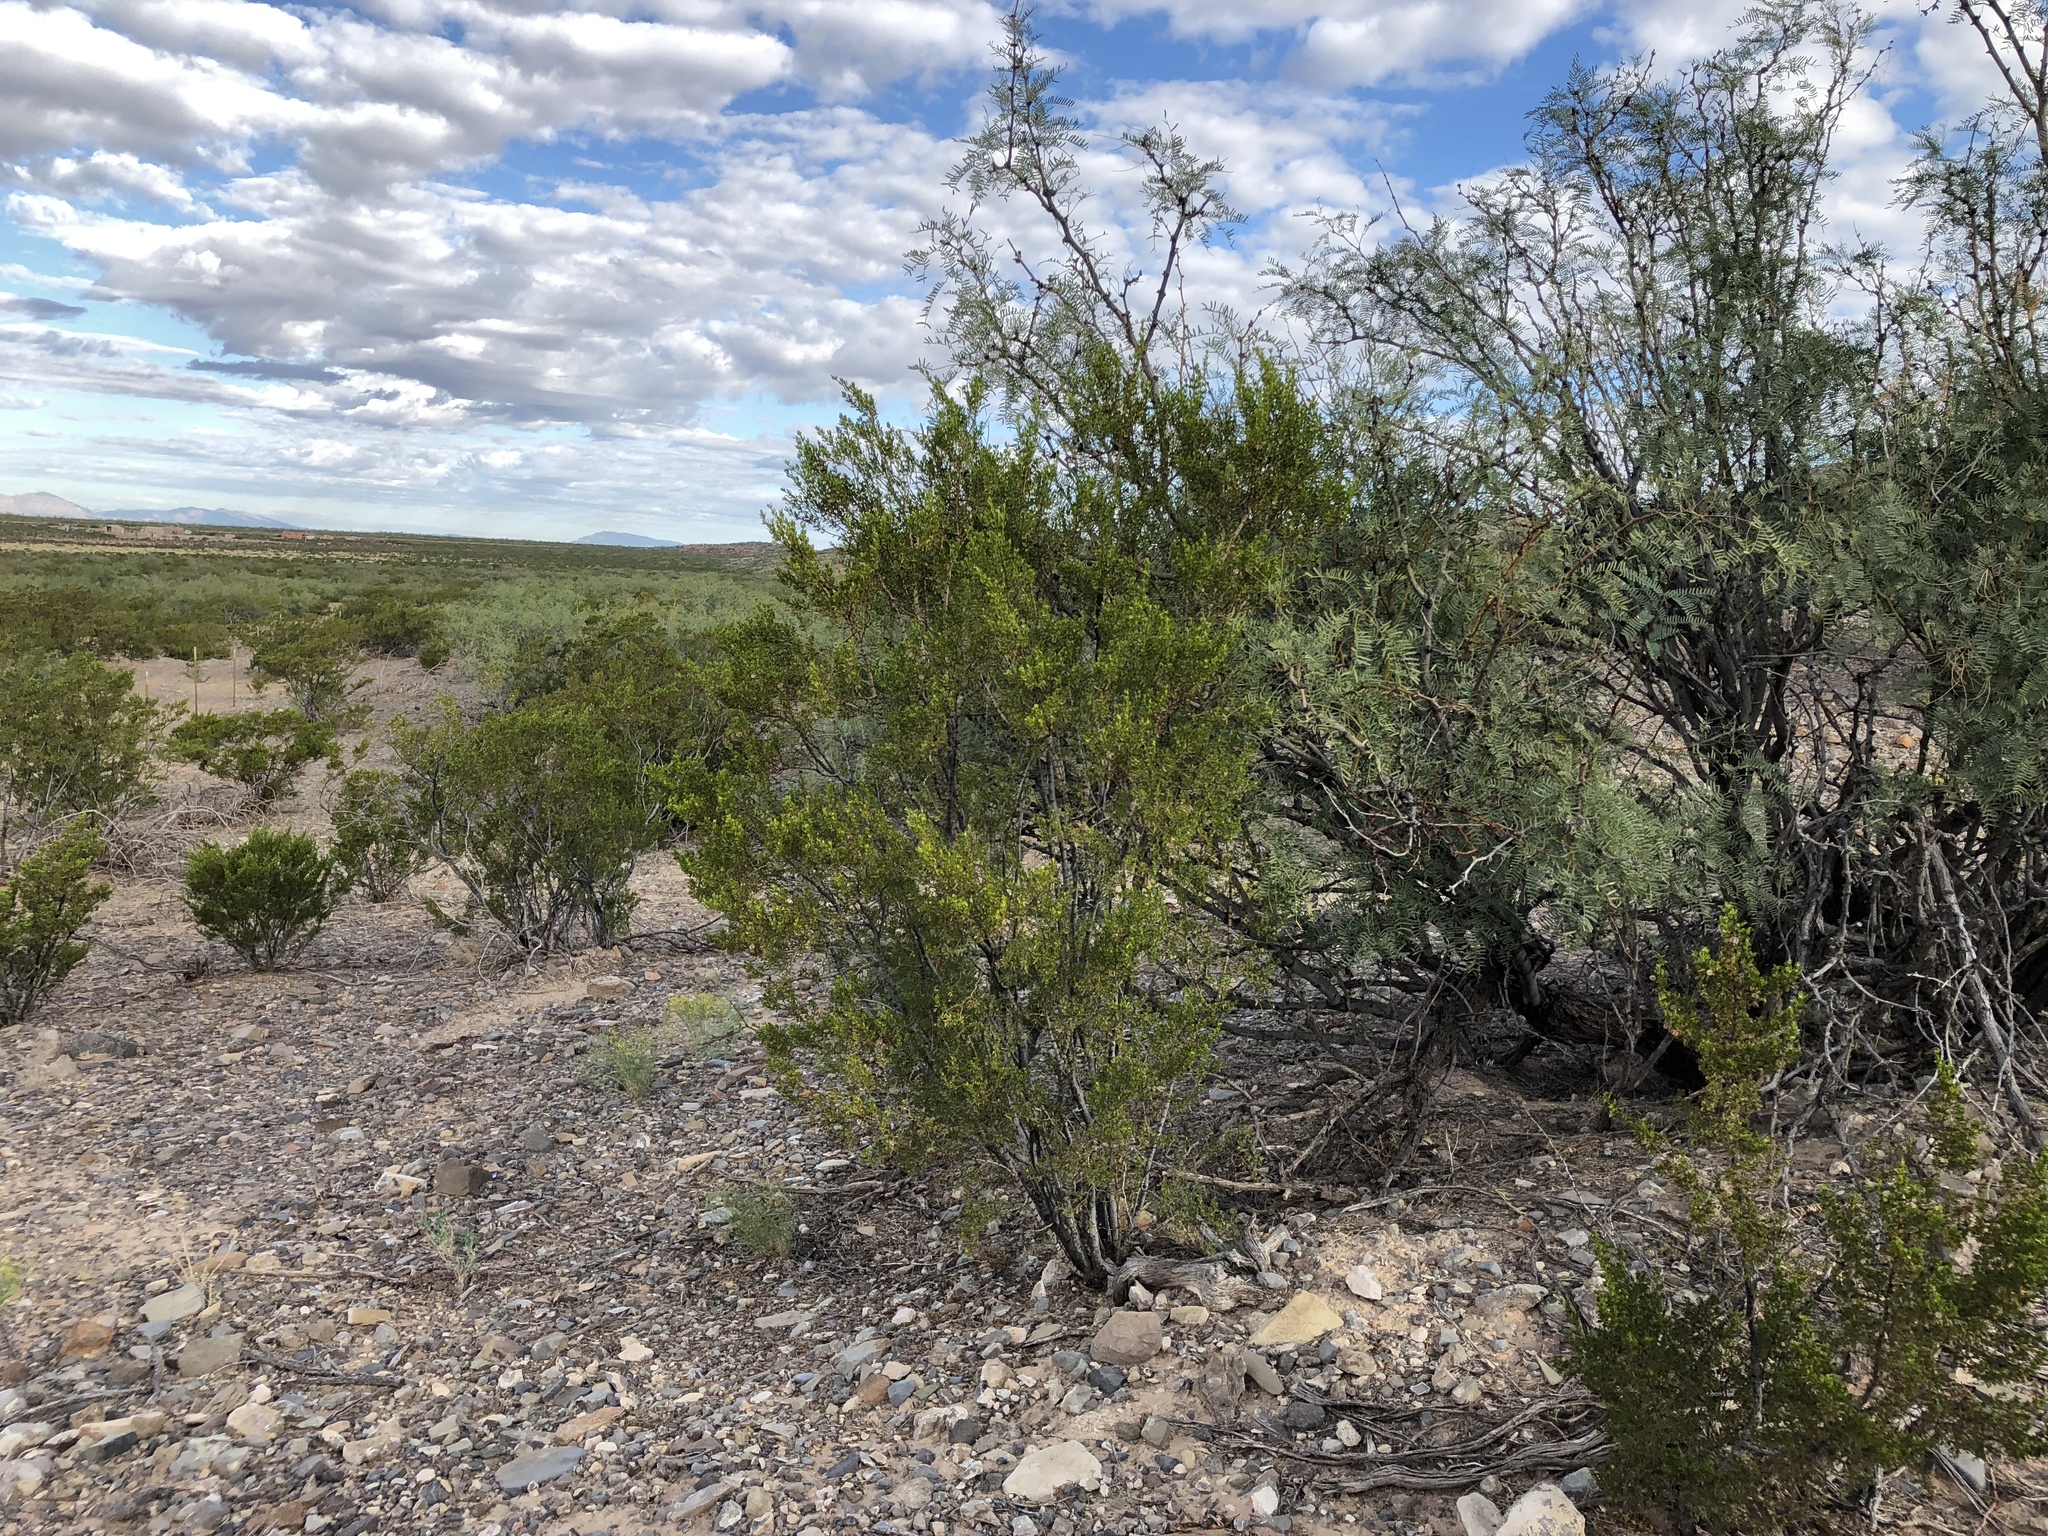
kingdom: Plantae
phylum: Tracheophyta
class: Magnoliopsida
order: Zygophyllales
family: Zygophyllaceae
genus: Larrea
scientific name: Larrea tridentata
